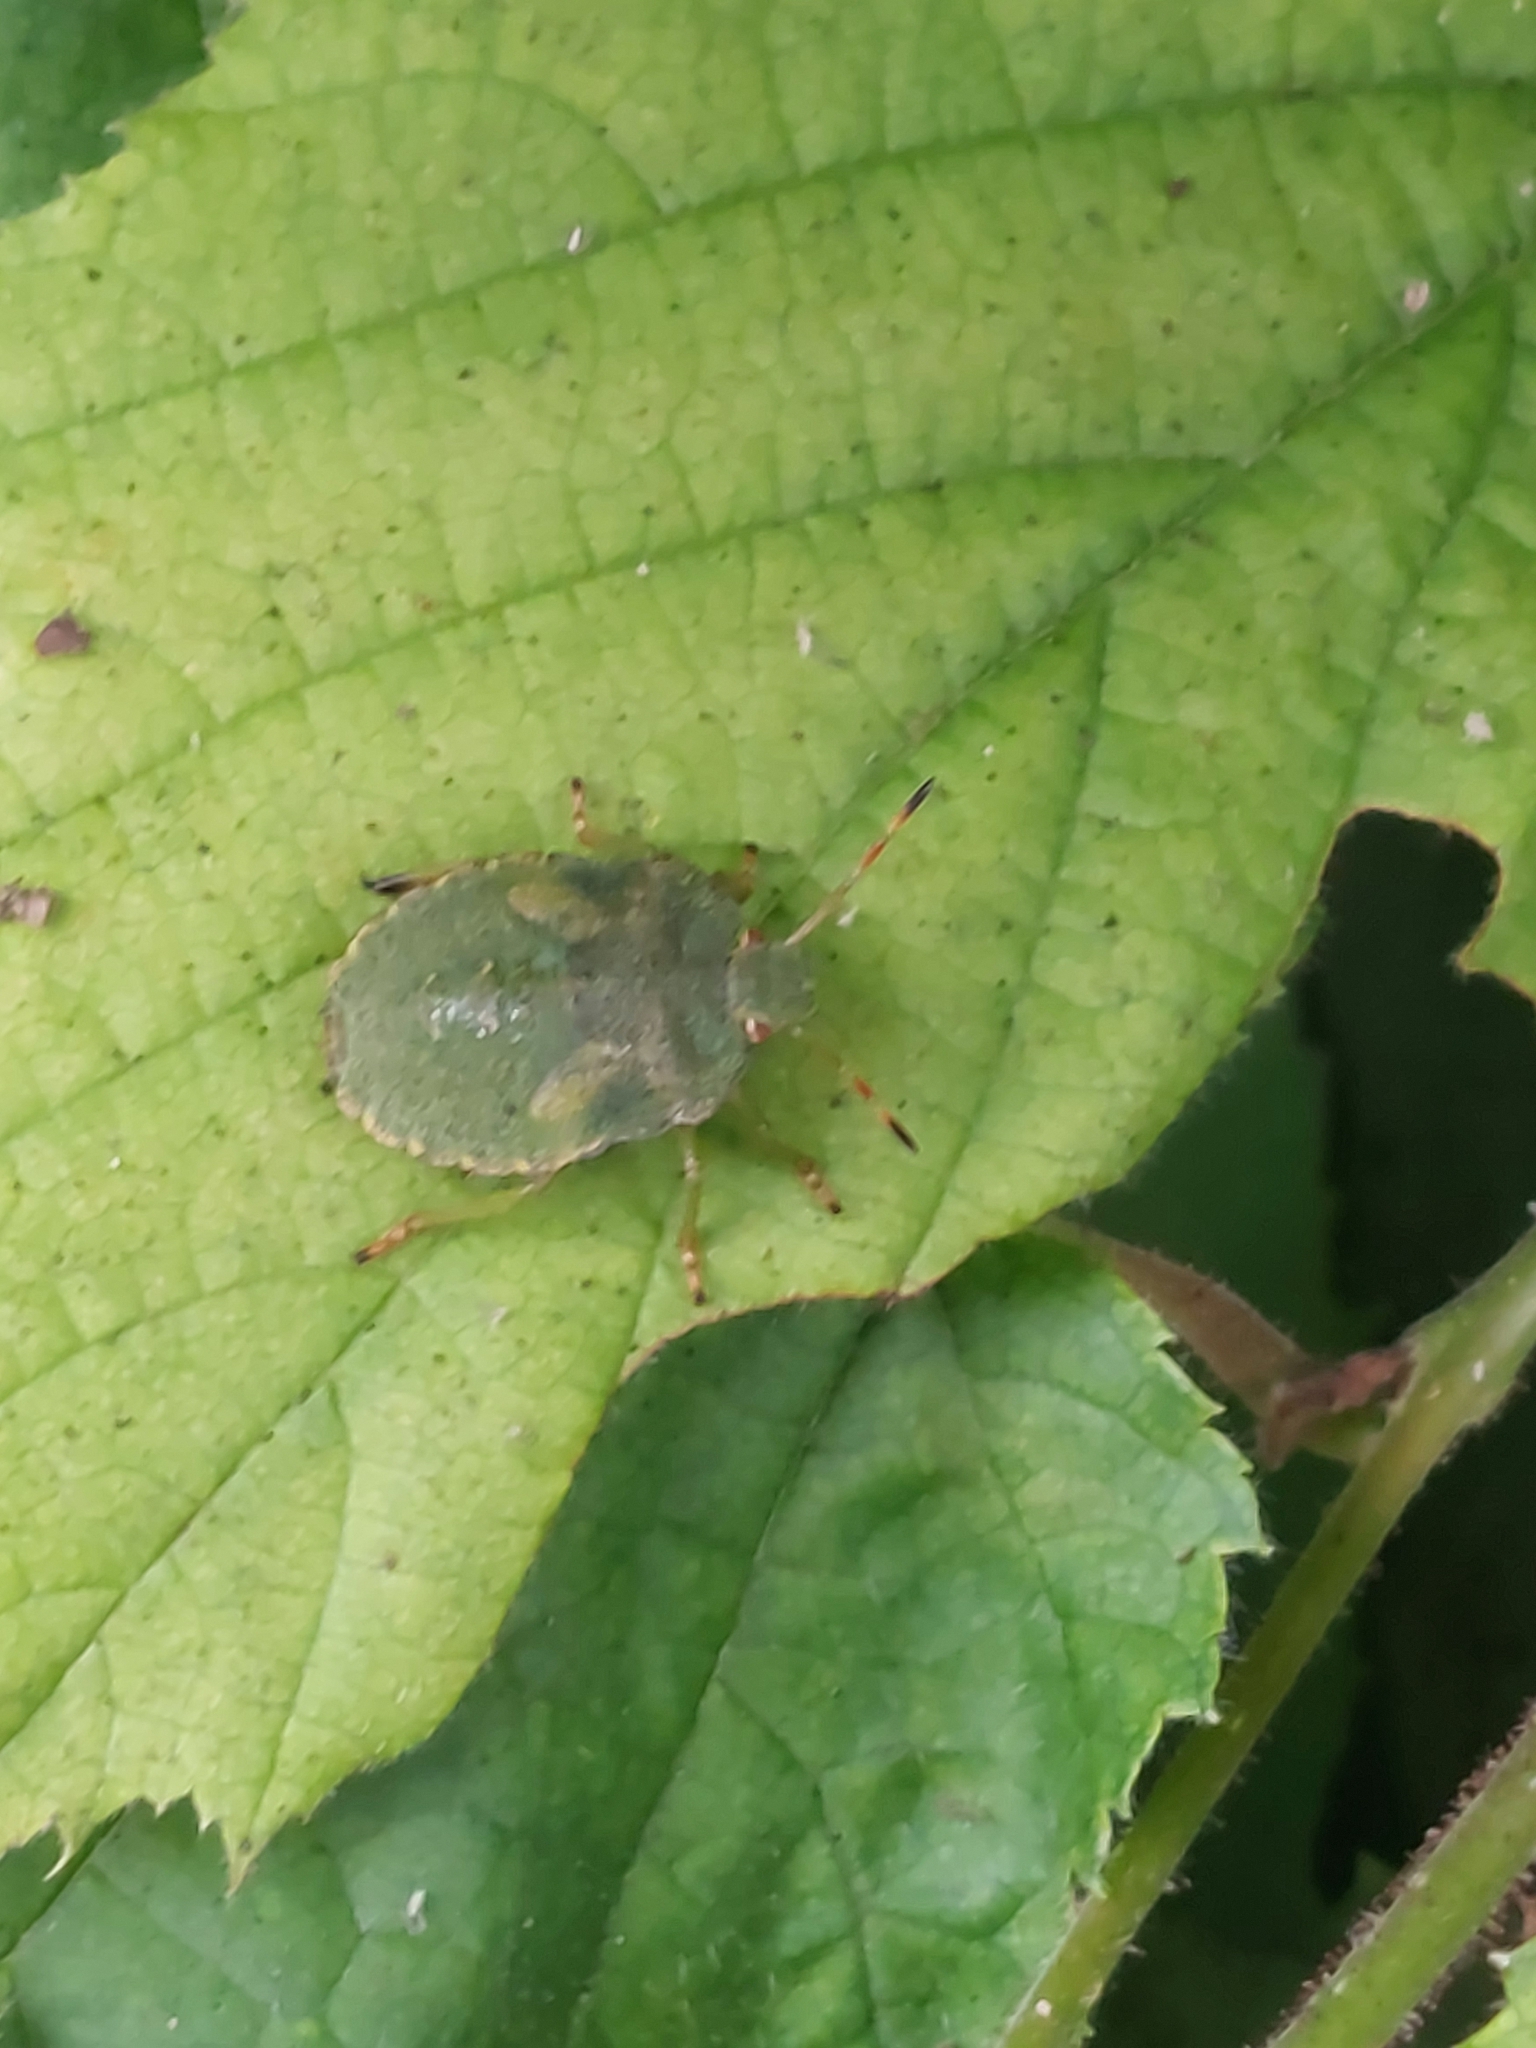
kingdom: Animalia
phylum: Arthropoda
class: Insecta
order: Hemiptera
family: Pentatomidae
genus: Palomena
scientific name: Palomena prasina
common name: Green shieldbug
